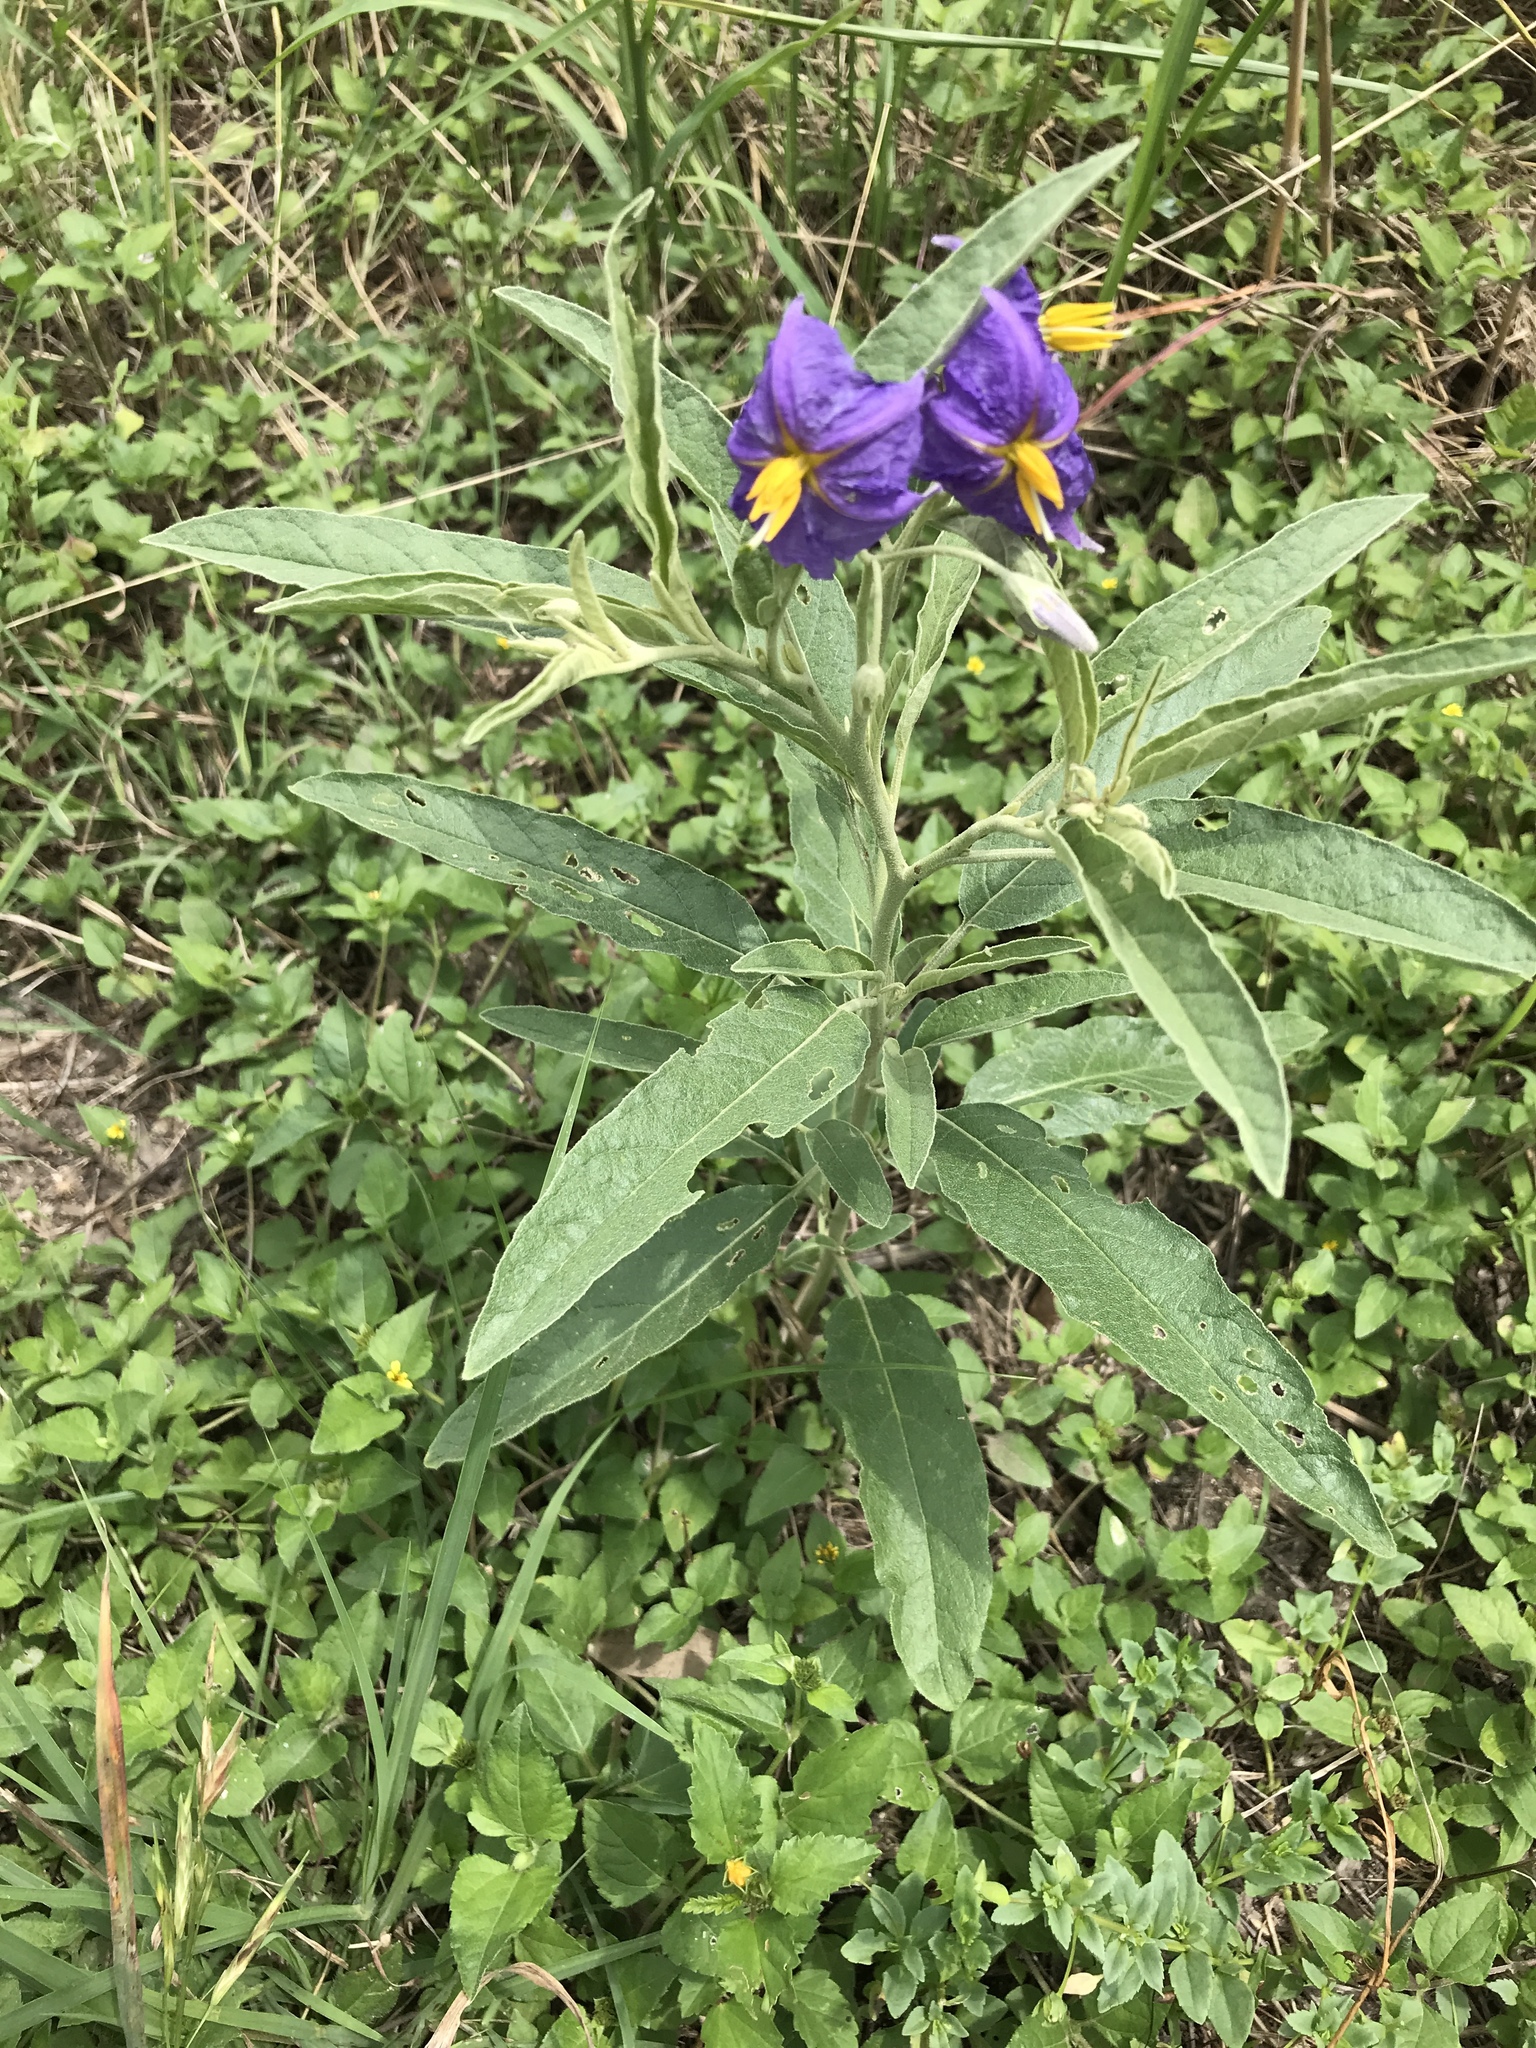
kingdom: Plantae
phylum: Tracheophyta
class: Magnoliopsida
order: Solanales
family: Solanaceae
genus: Solanum
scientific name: Solanum elaeagnifolium
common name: Silverleaf nightshade
